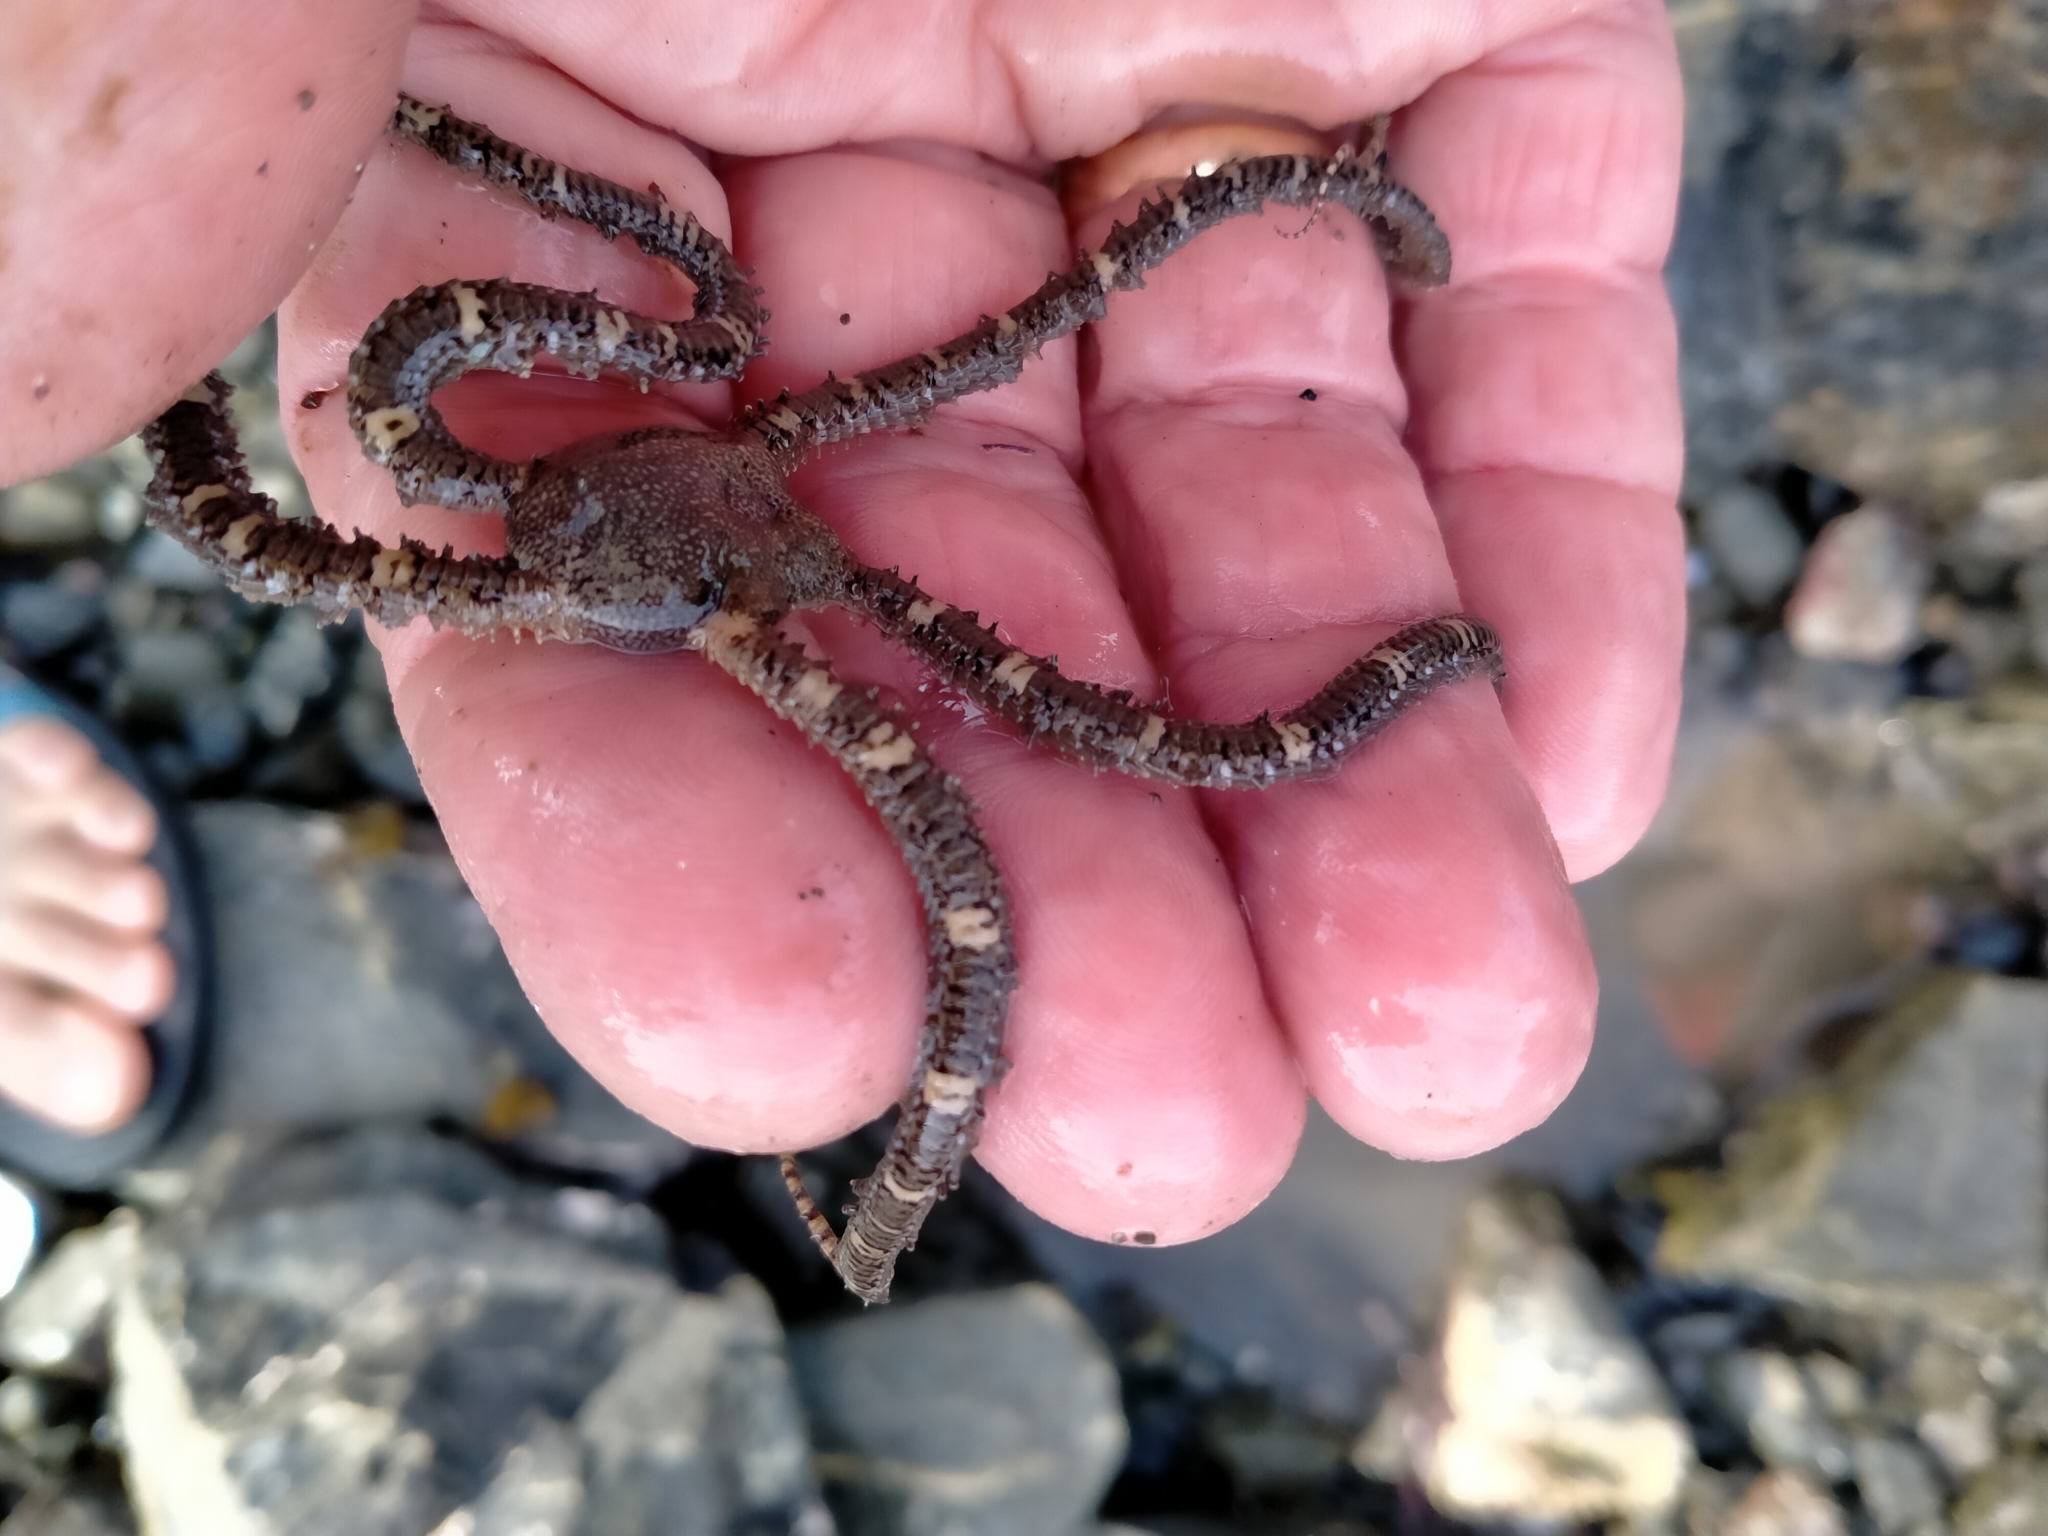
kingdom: Animalia
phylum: Echinodermata
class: Ophiuroidea
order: Amphilepidida
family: Ophionereididae
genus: Ophionereis
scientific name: Ophionereis fasciata
